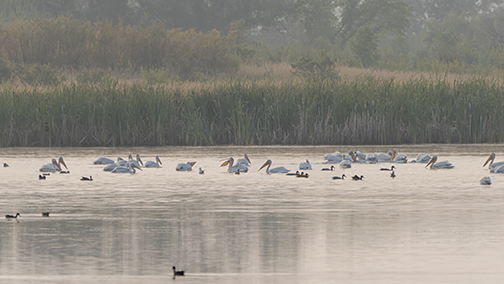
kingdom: Animalia
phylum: Chordata
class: Aves
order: Pelecaniformes
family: Pelecanidae
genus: Pelecanus
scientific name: Pelecanus erythrorhynchos
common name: American white pelican
